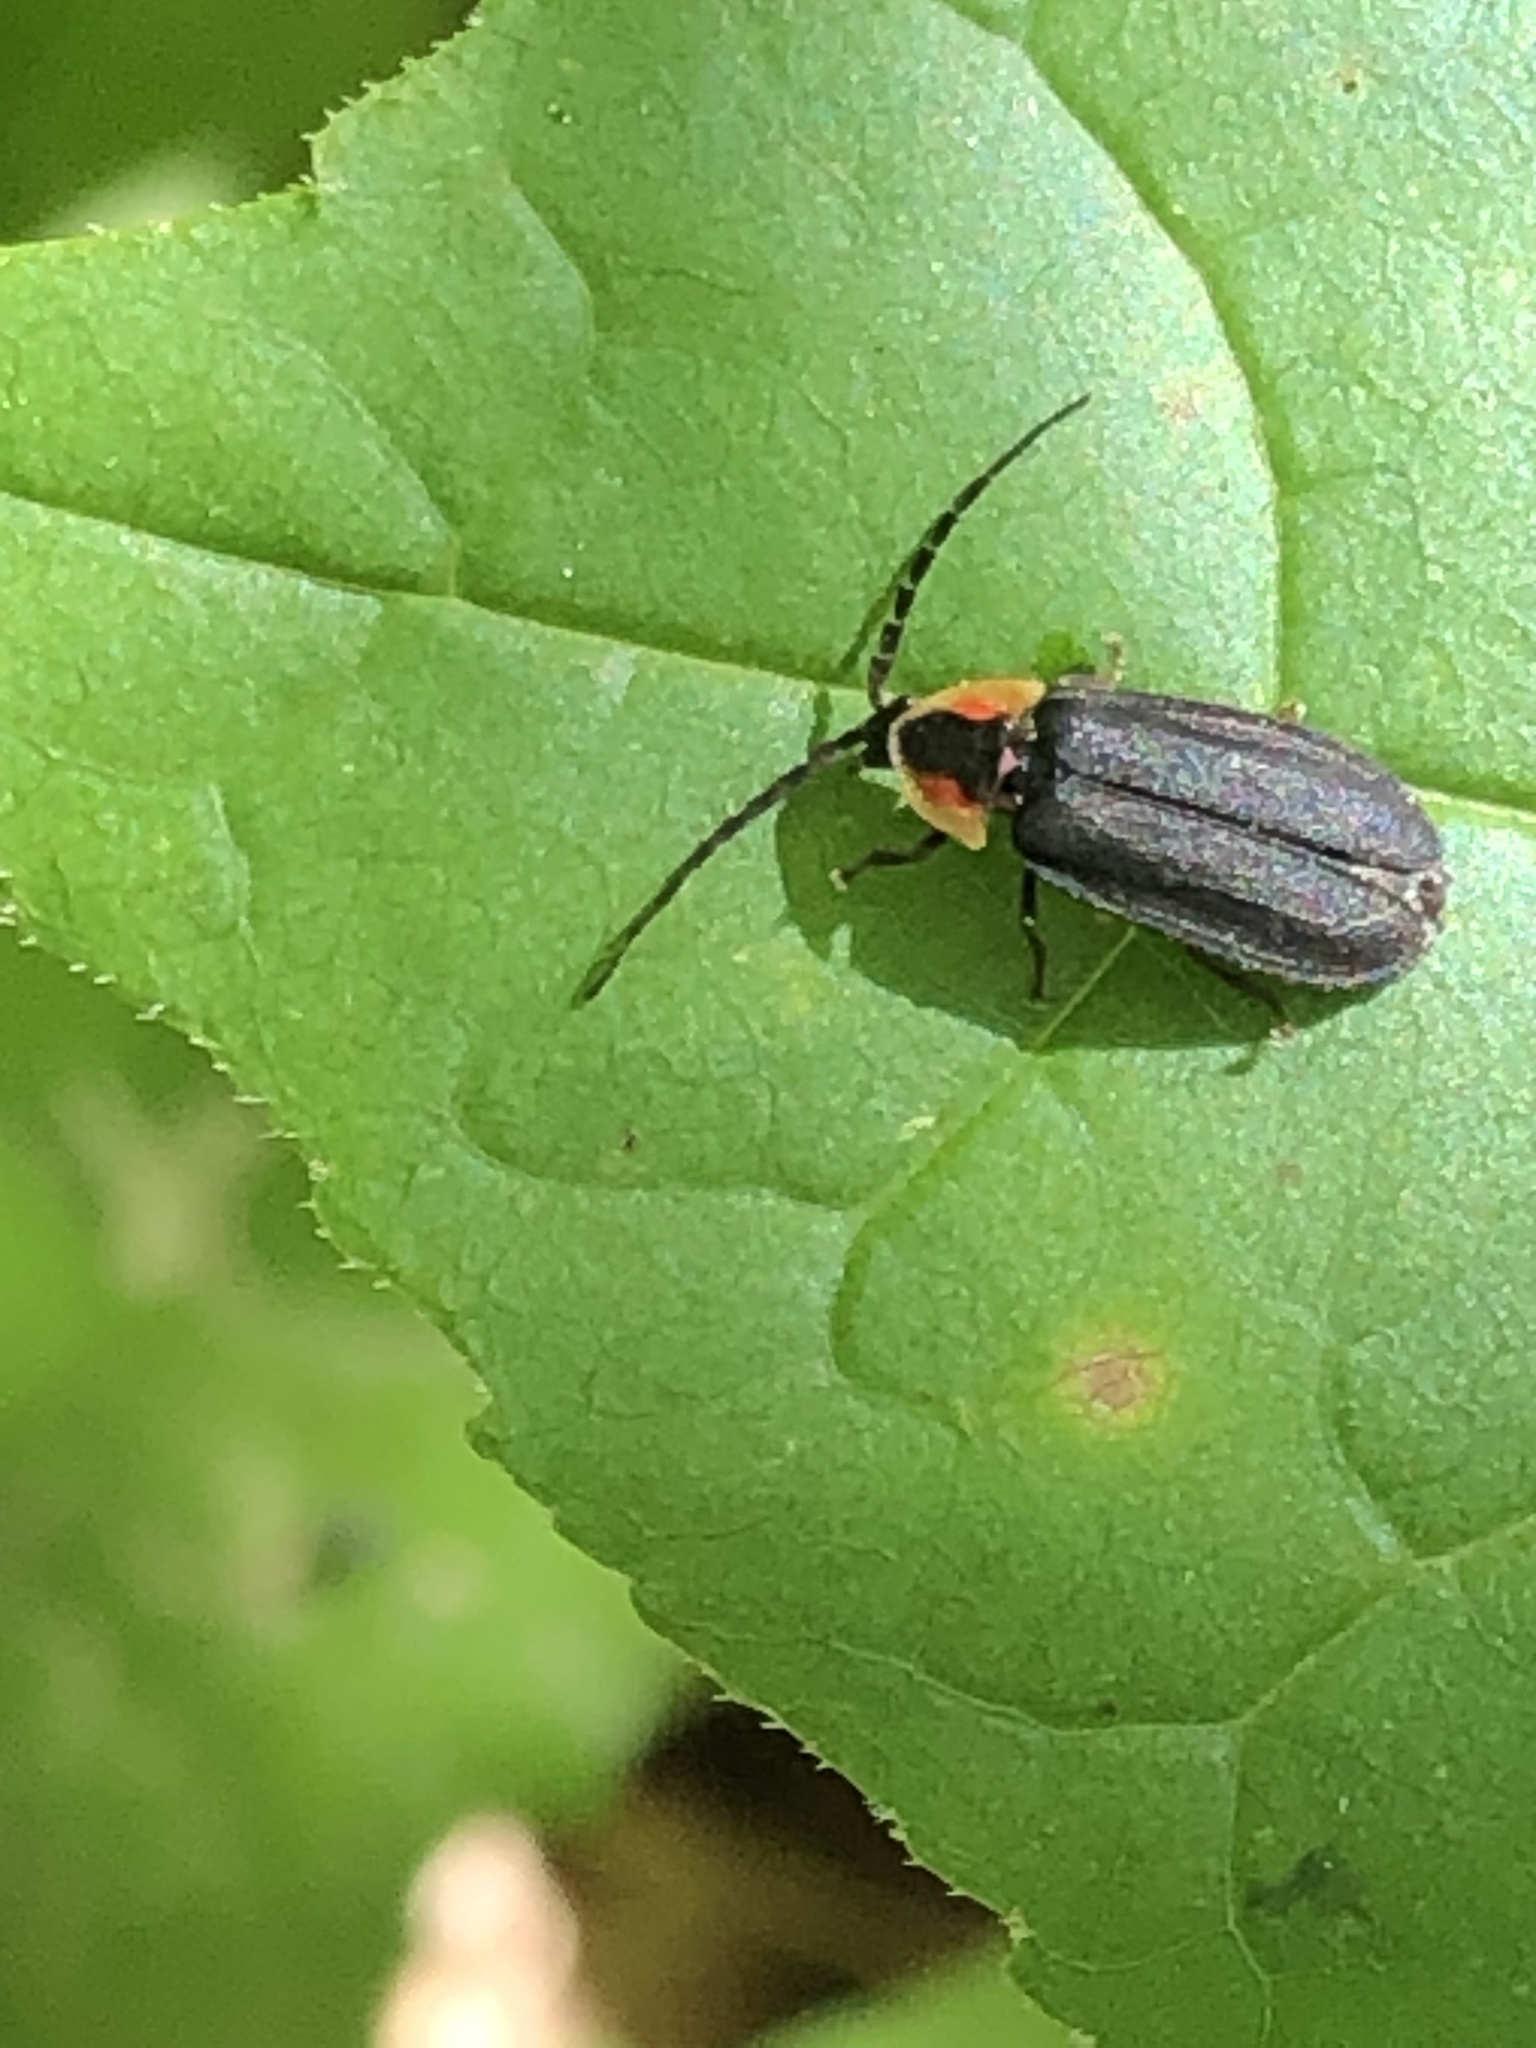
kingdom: Animalia
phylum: Arthropoda
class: Insecta
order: Coleoptera
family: Lampyridae
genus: Lucidota
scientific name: Lucidota atra
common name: Black firefly
